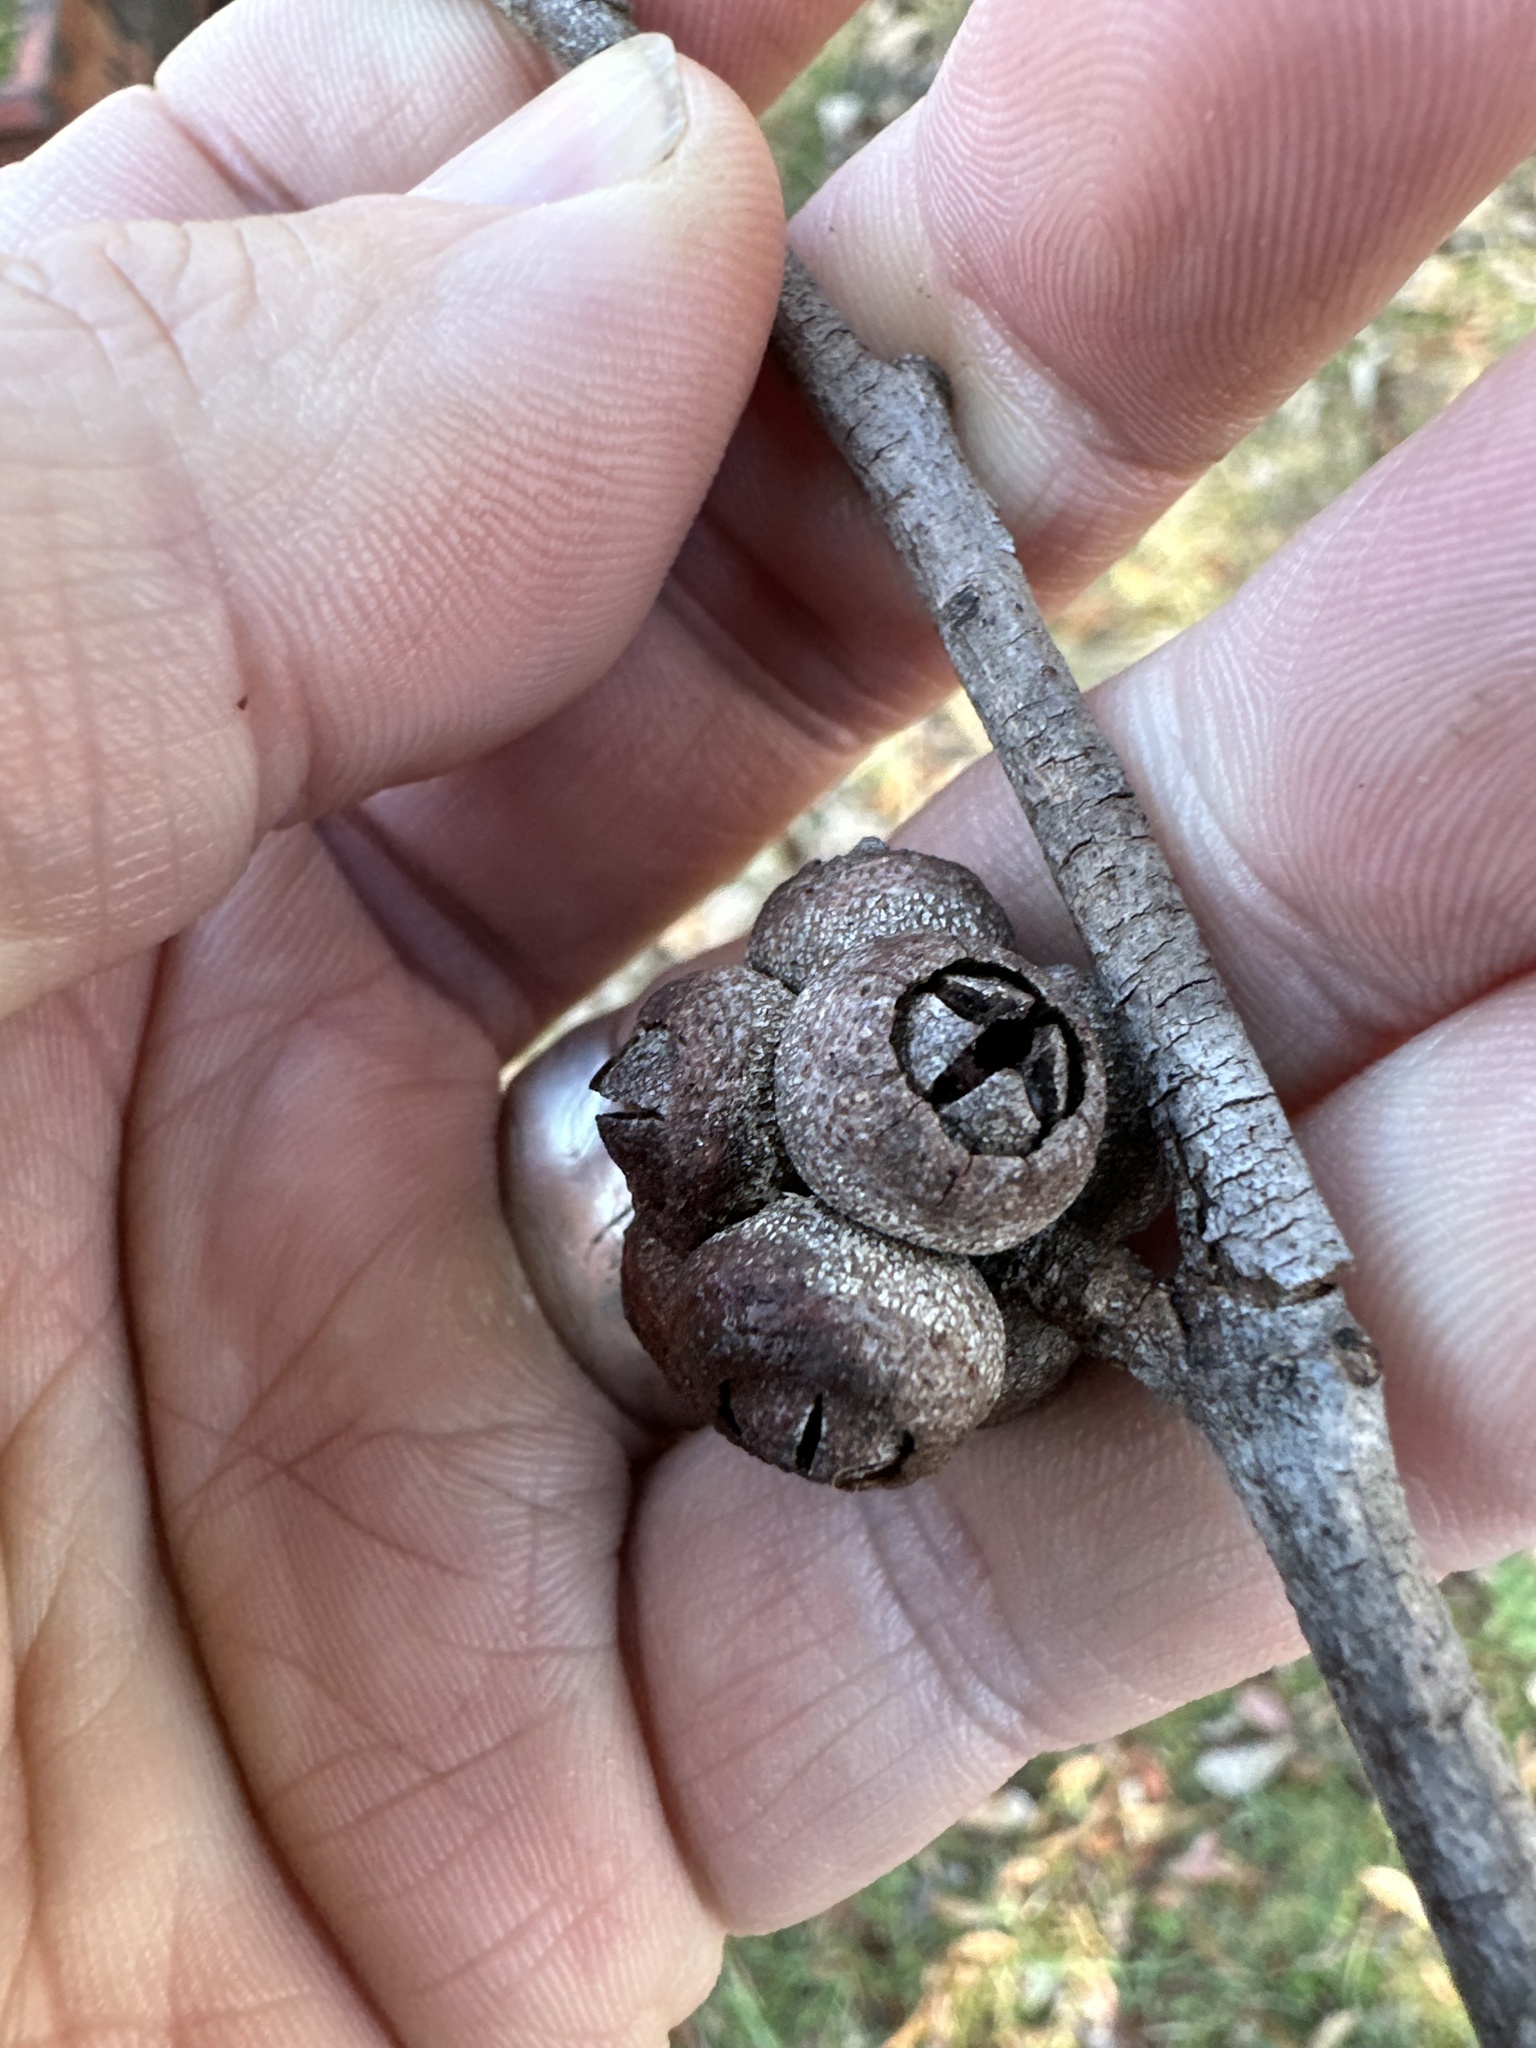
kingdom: Plantae
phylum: Tracheophyta
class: Magnoliopsida
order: Myrtales
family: Myrtaceae
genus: Eucalyptus
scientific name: Eucalyptus blaxlandii
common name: Blaxland's stringybark
